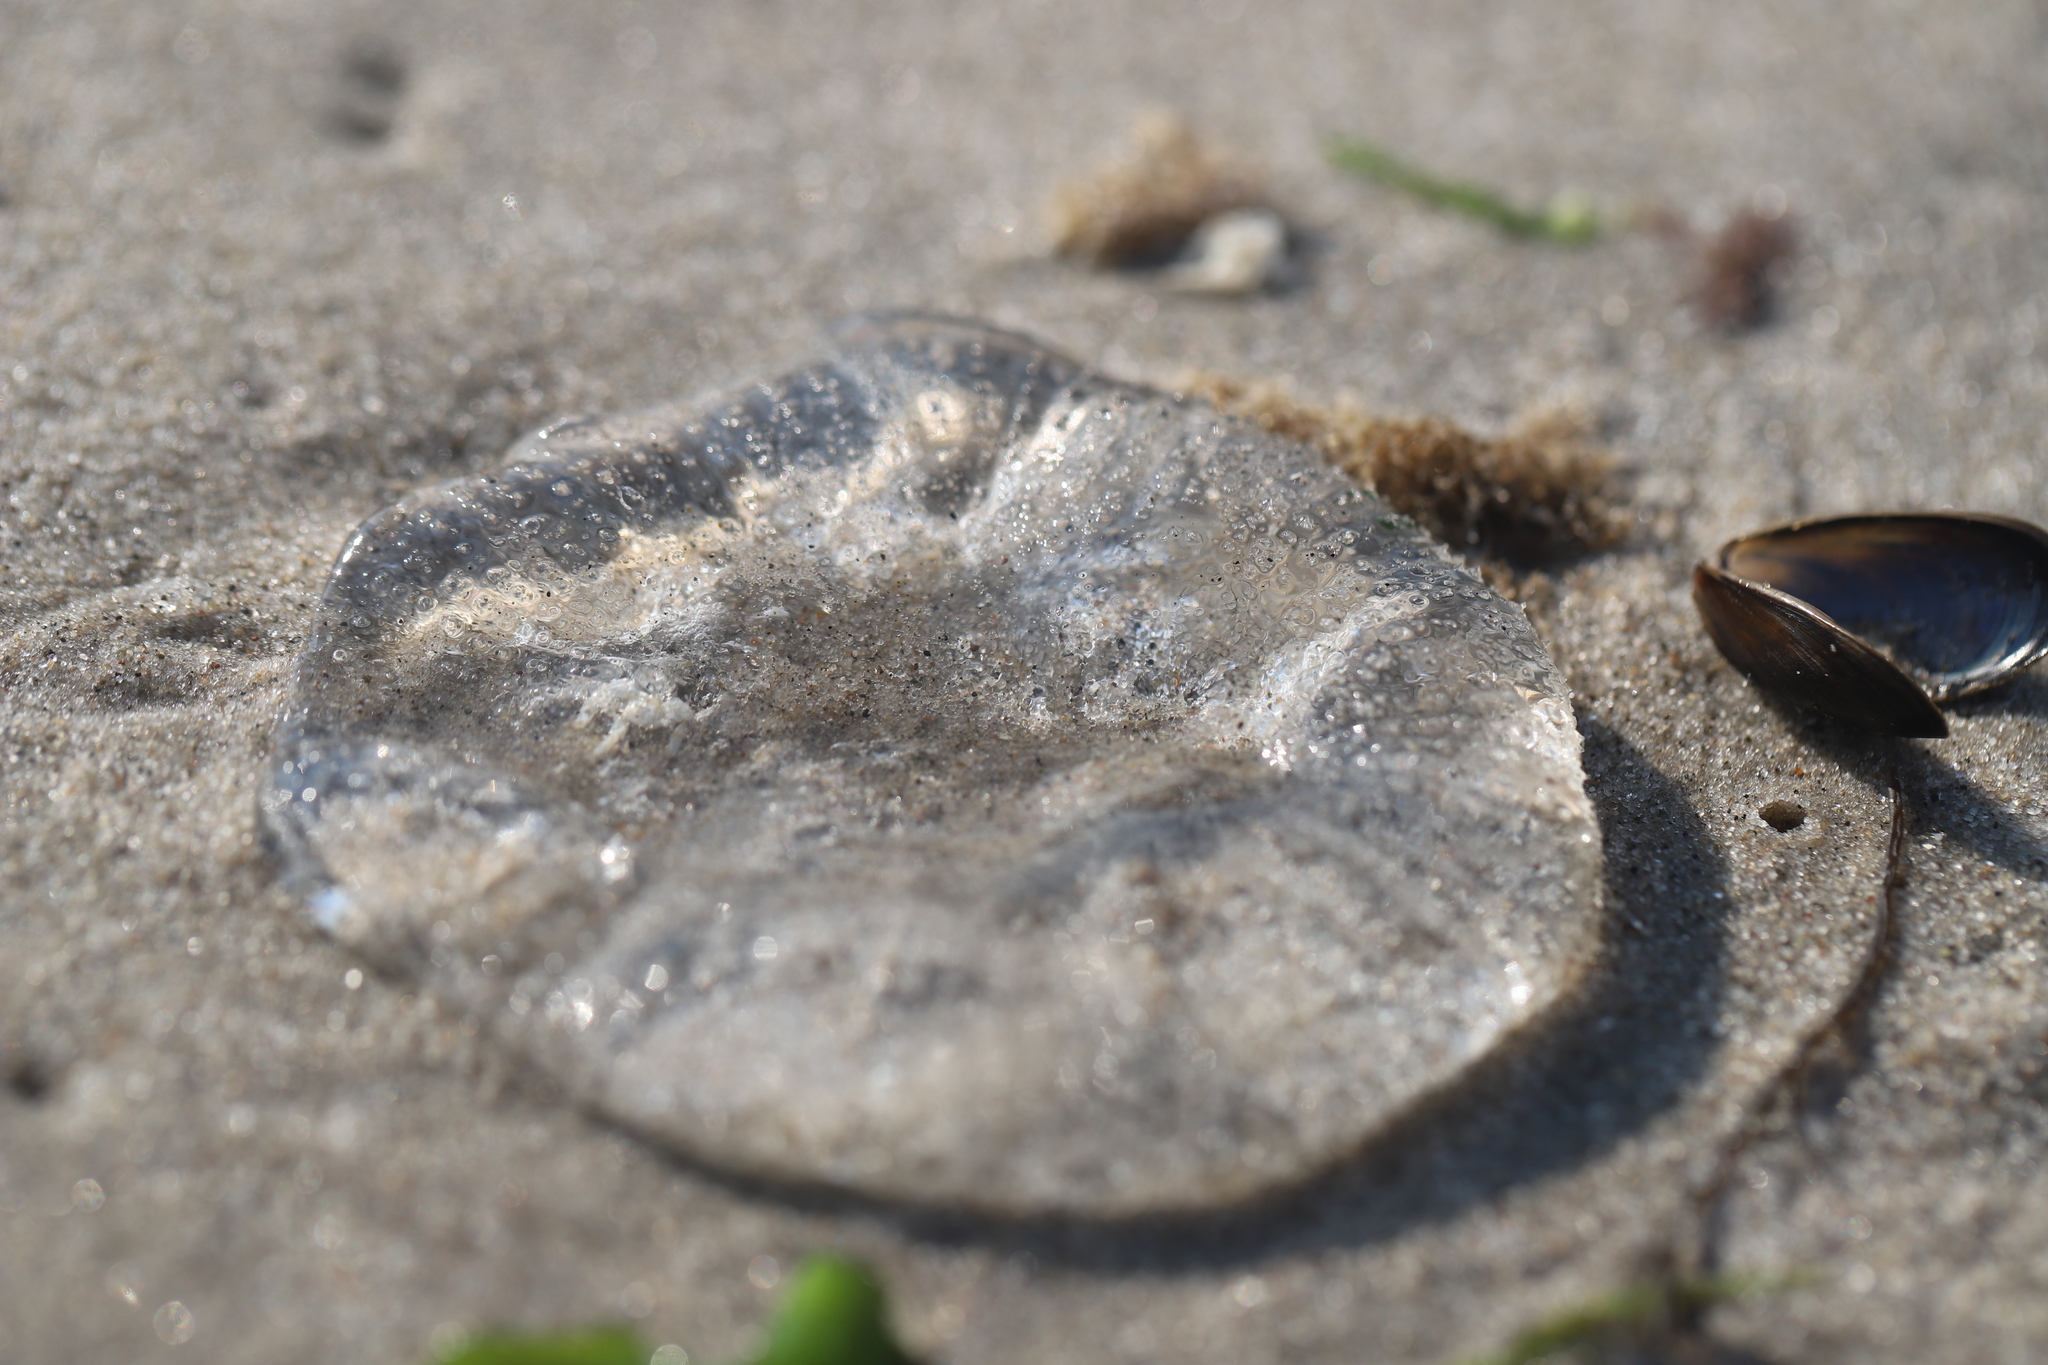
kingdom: Animalia
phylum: Cnidaria
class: Hydrozoa
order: Leptothecata
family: Aequoreidae
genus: Rhacostoma
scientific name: Rhacostoma atlanticum
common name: Lined water jelly
